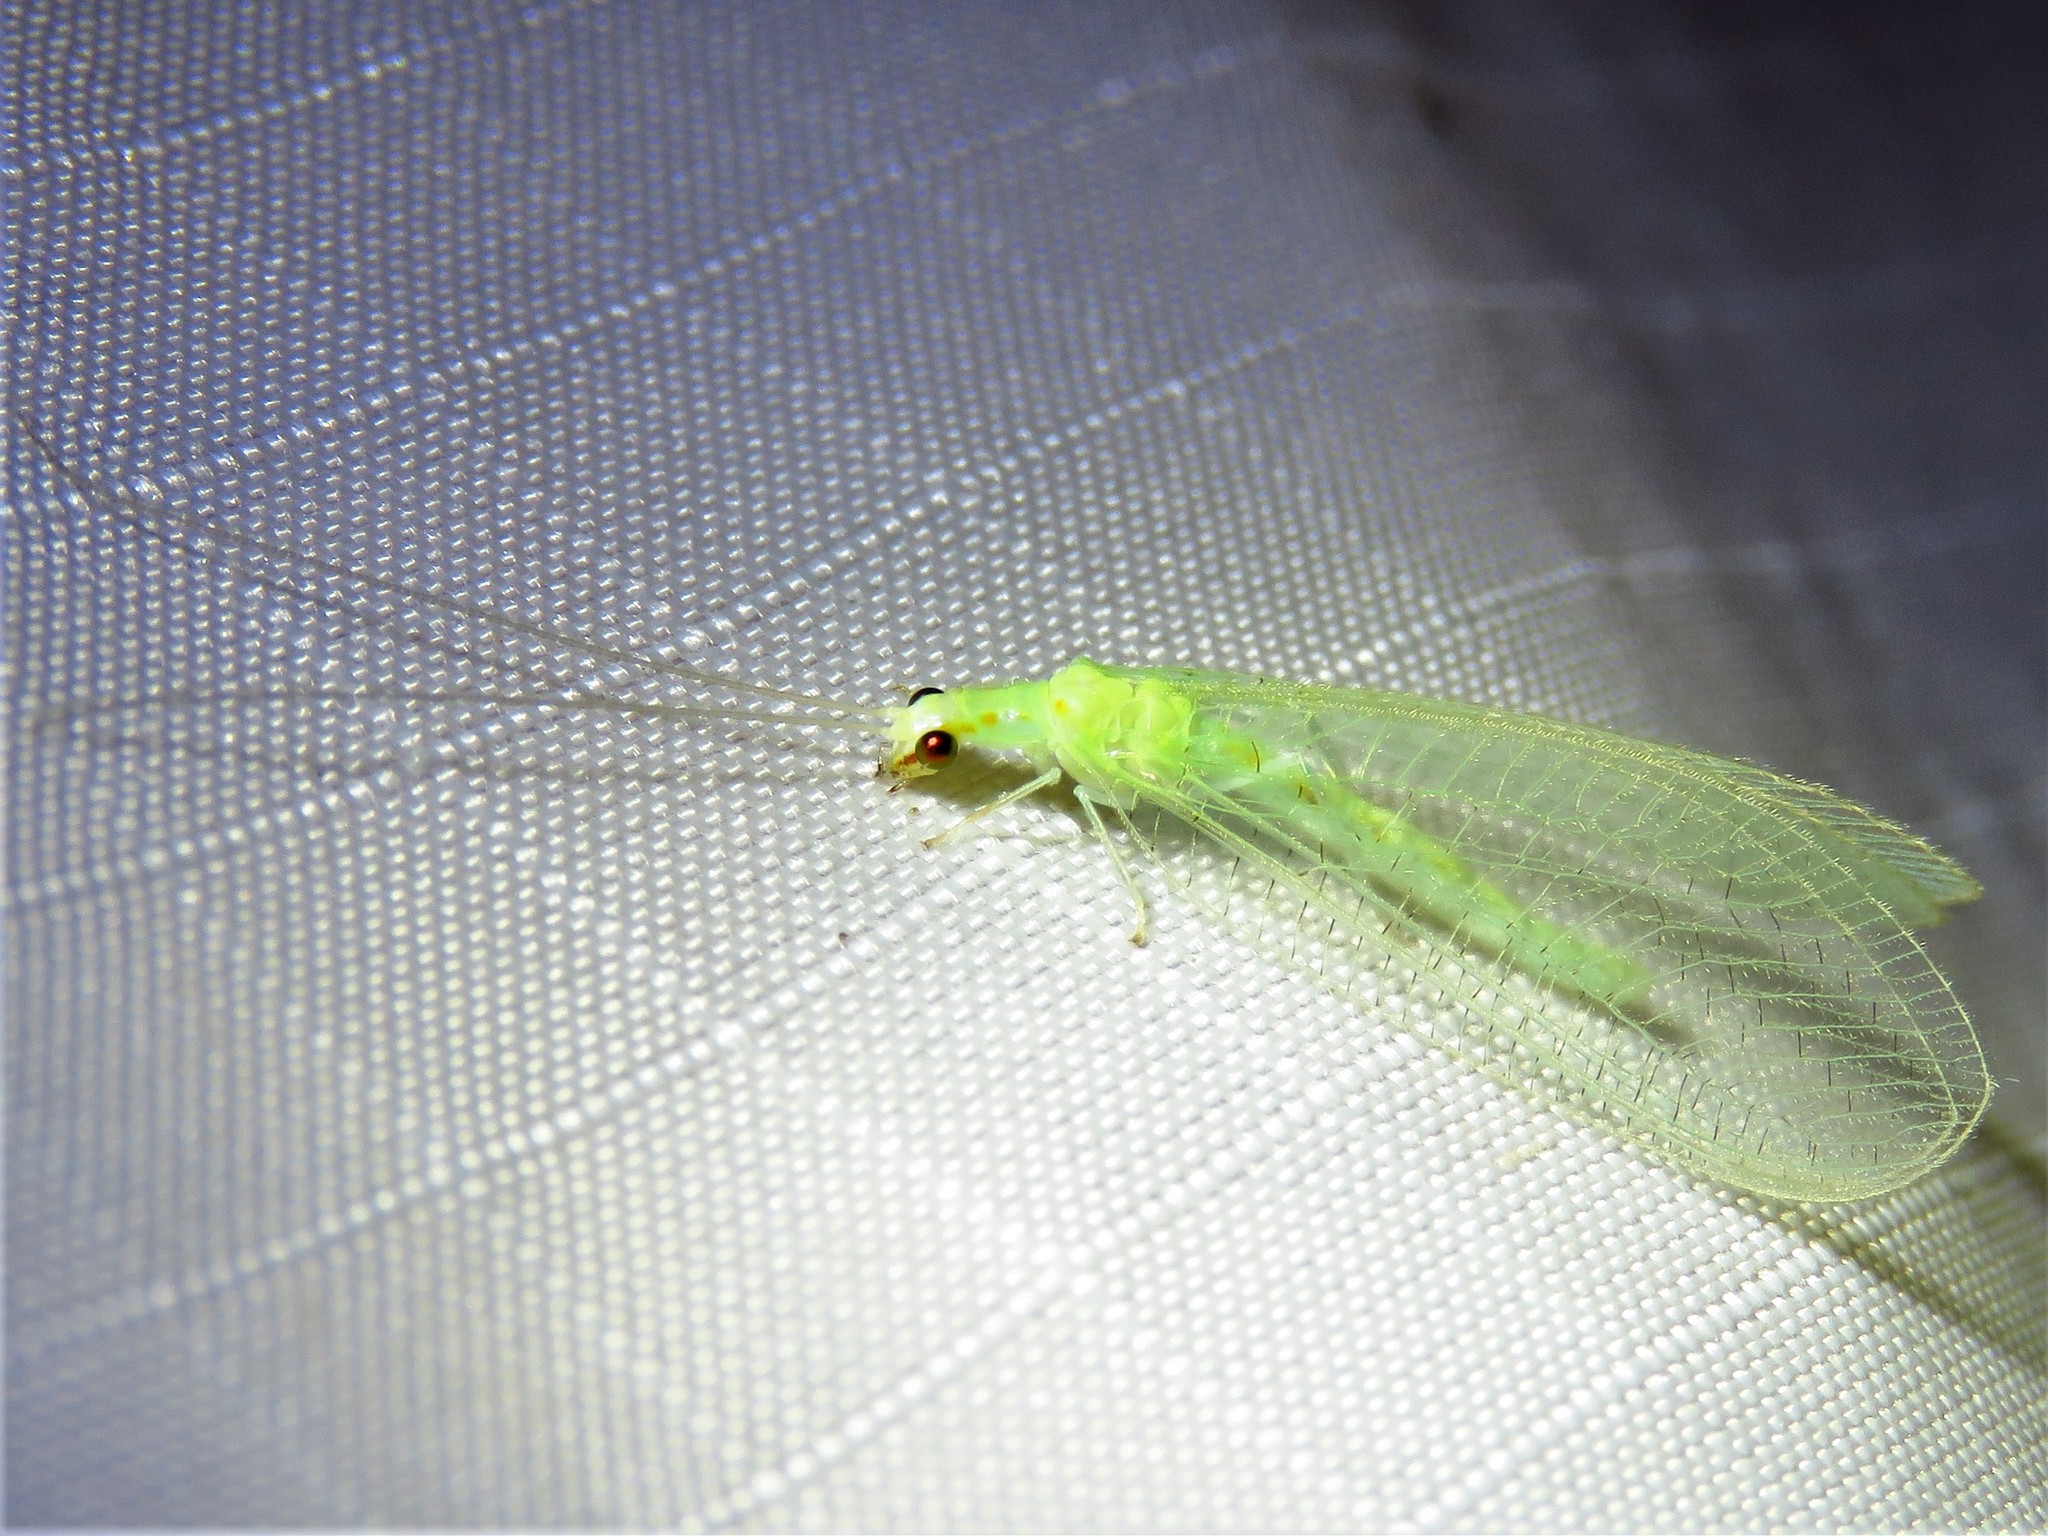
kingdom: Animalia
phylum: Arthropoda
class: Insecta
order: Neuroptera
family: Chrysopidae
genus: Chrysopa
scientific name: Chrysopa quadripunctata
